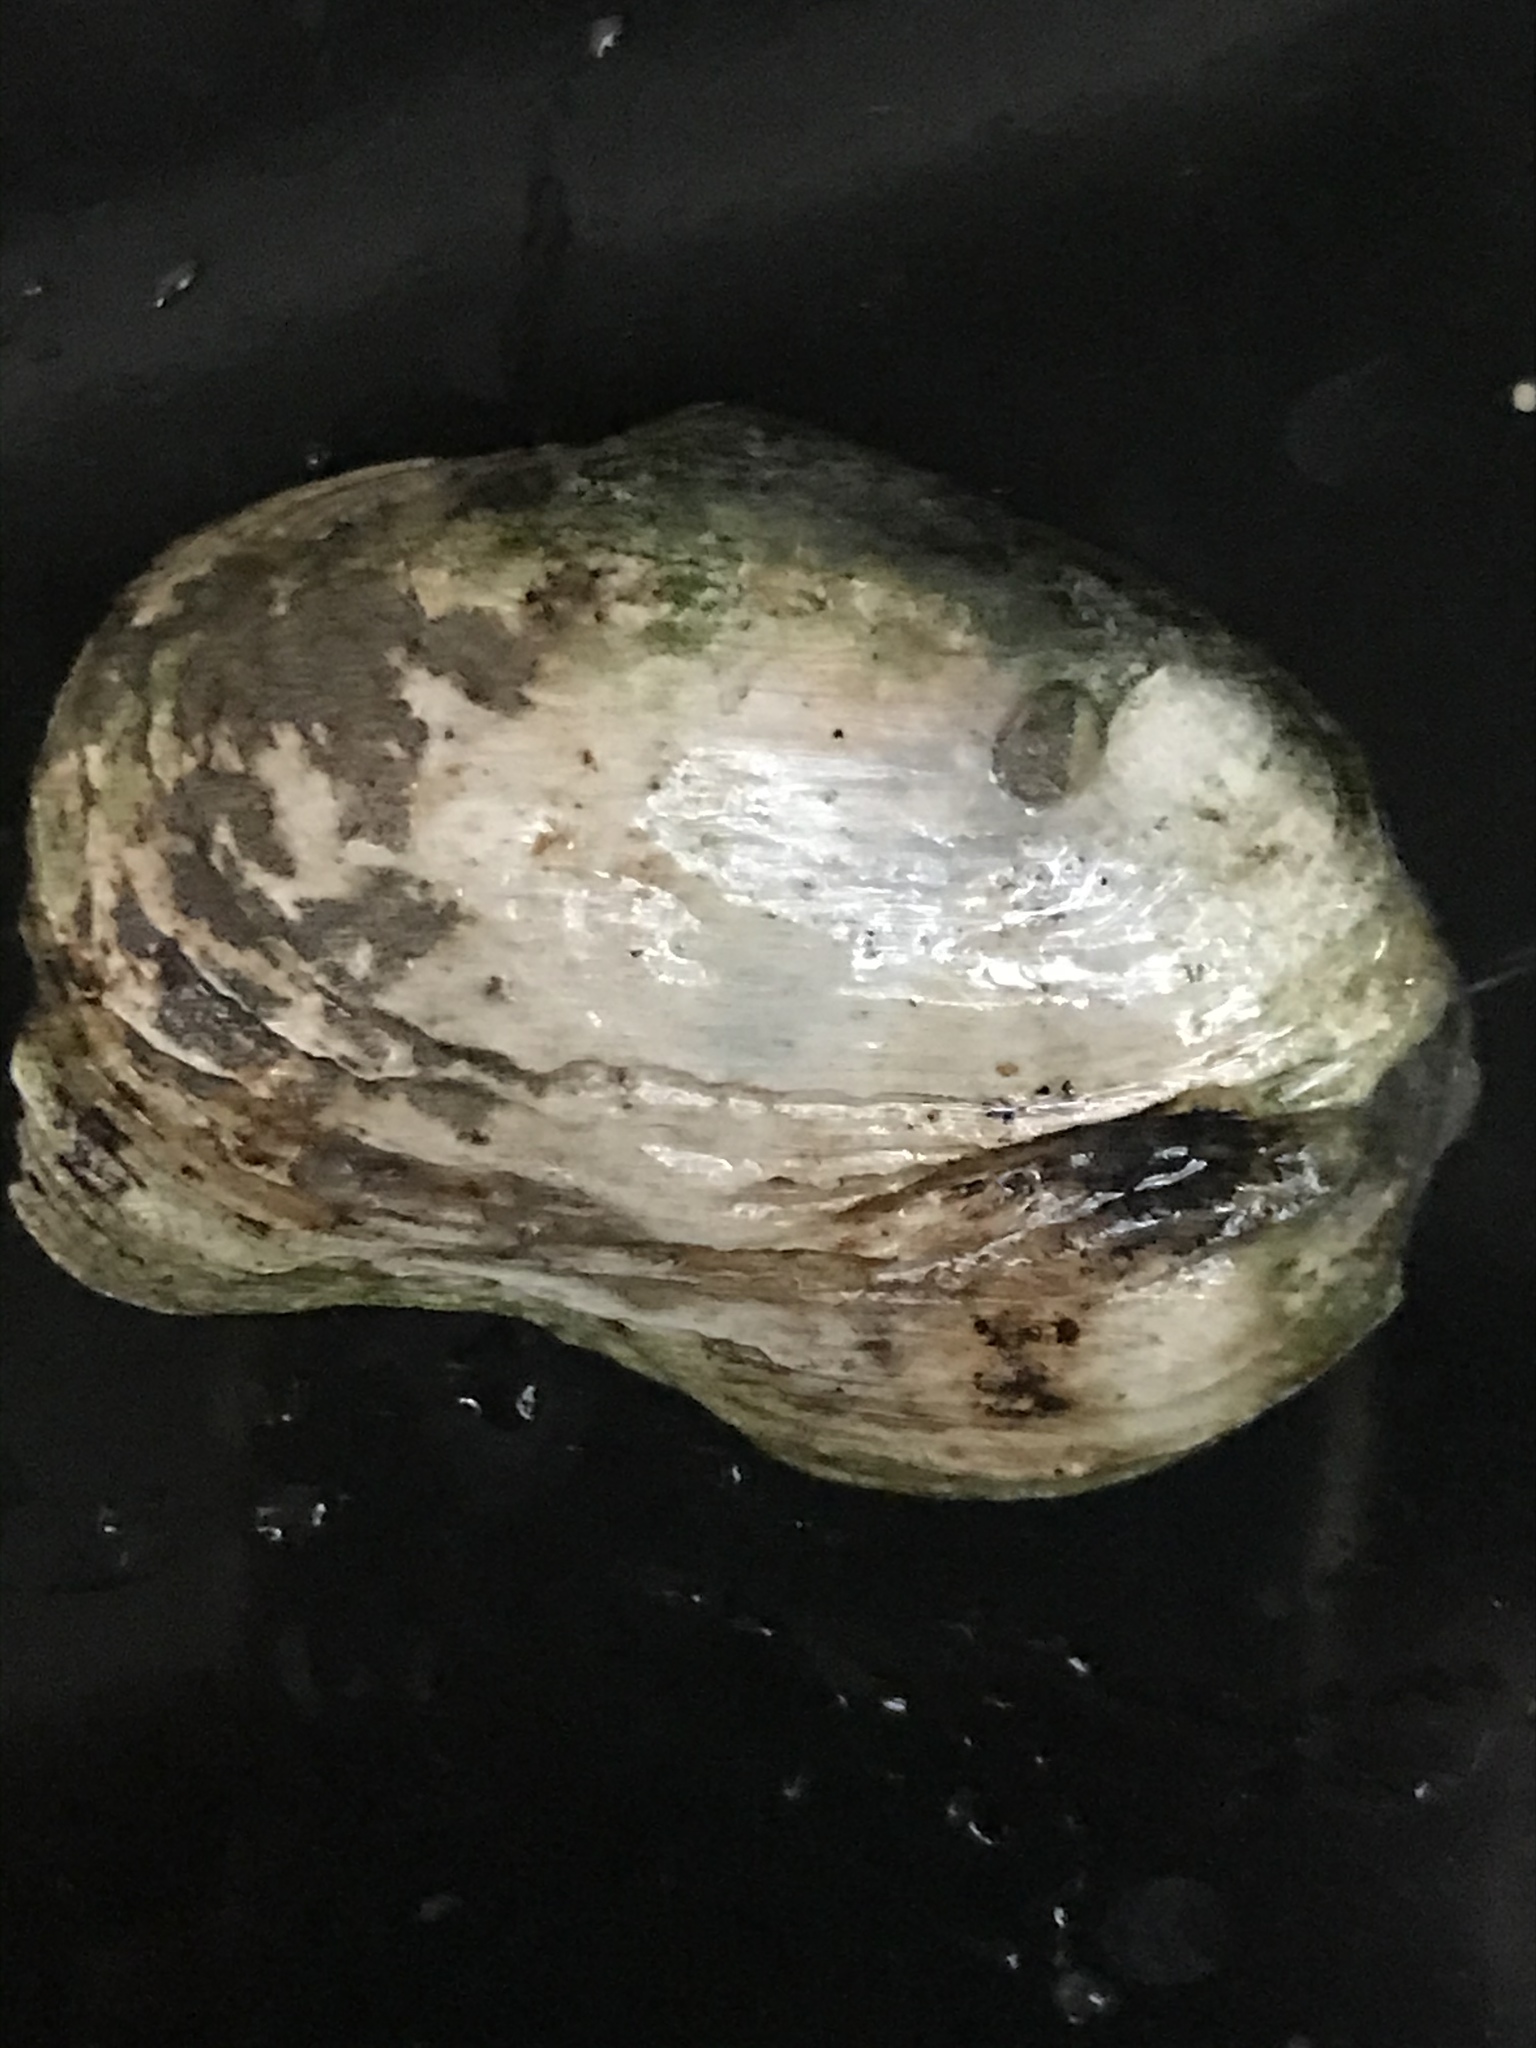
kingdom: Animalia
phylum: Mollusca
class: Bivalvia
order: Myida
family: Myidae
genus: Mya
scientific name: Mya arenaria
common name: Soft-shelled clam
